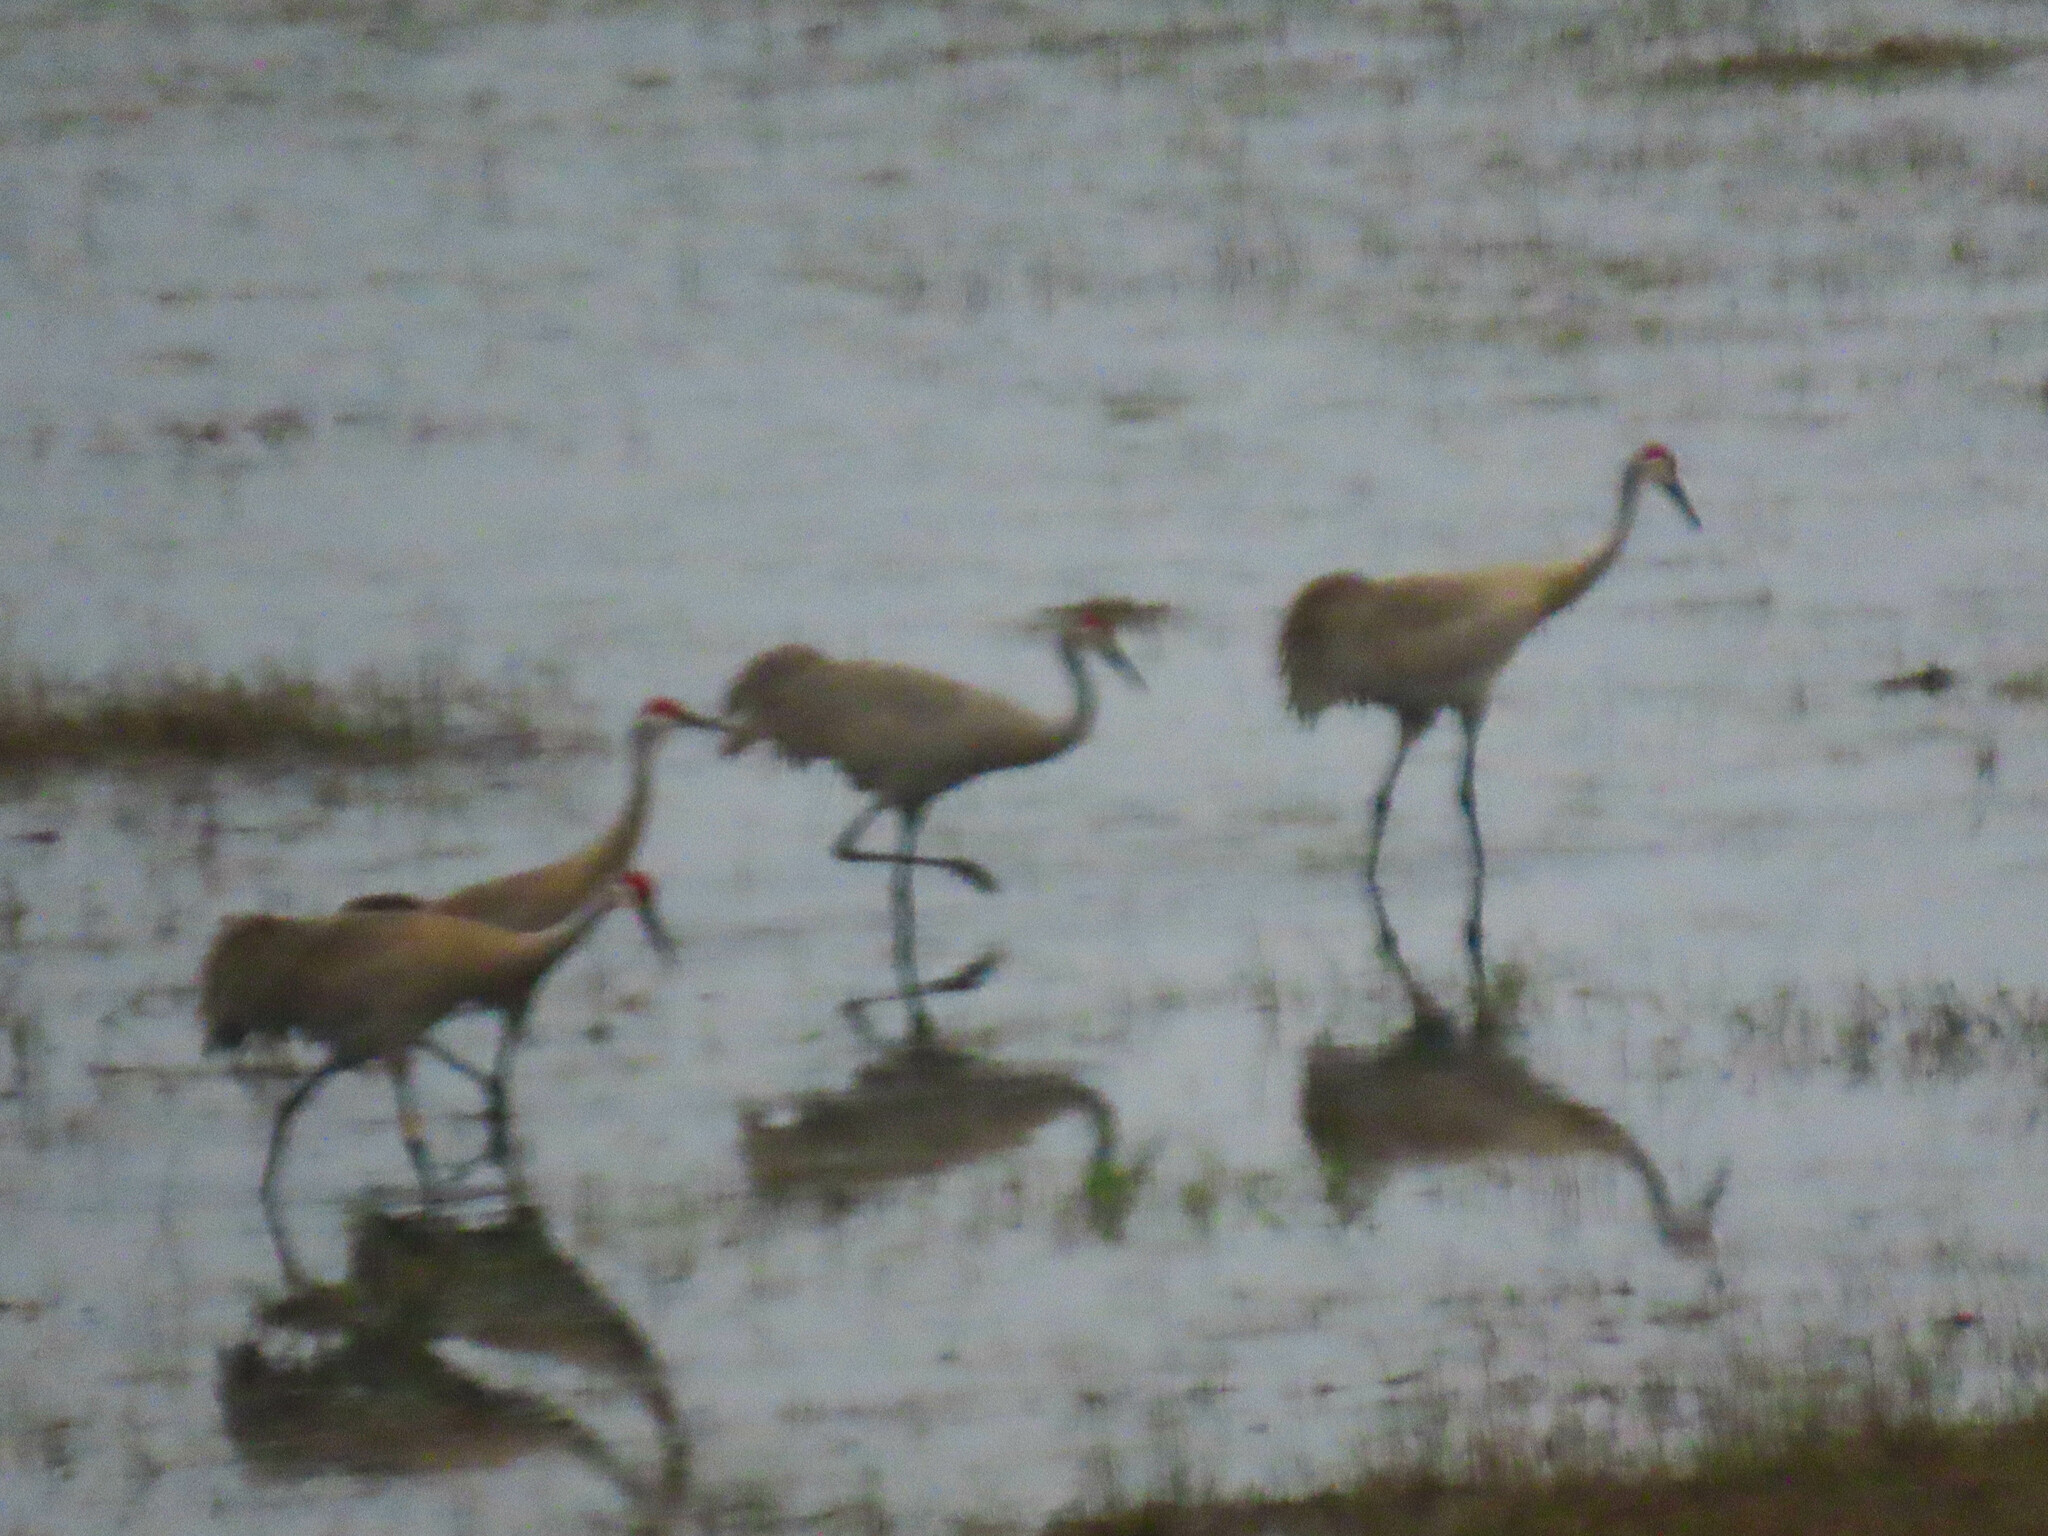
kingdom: Animalia
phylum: Chordata
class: Aves
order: Gruiformes
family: Gruidae
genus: Grus
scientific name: Grus canadensis
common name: Sandhill crane
